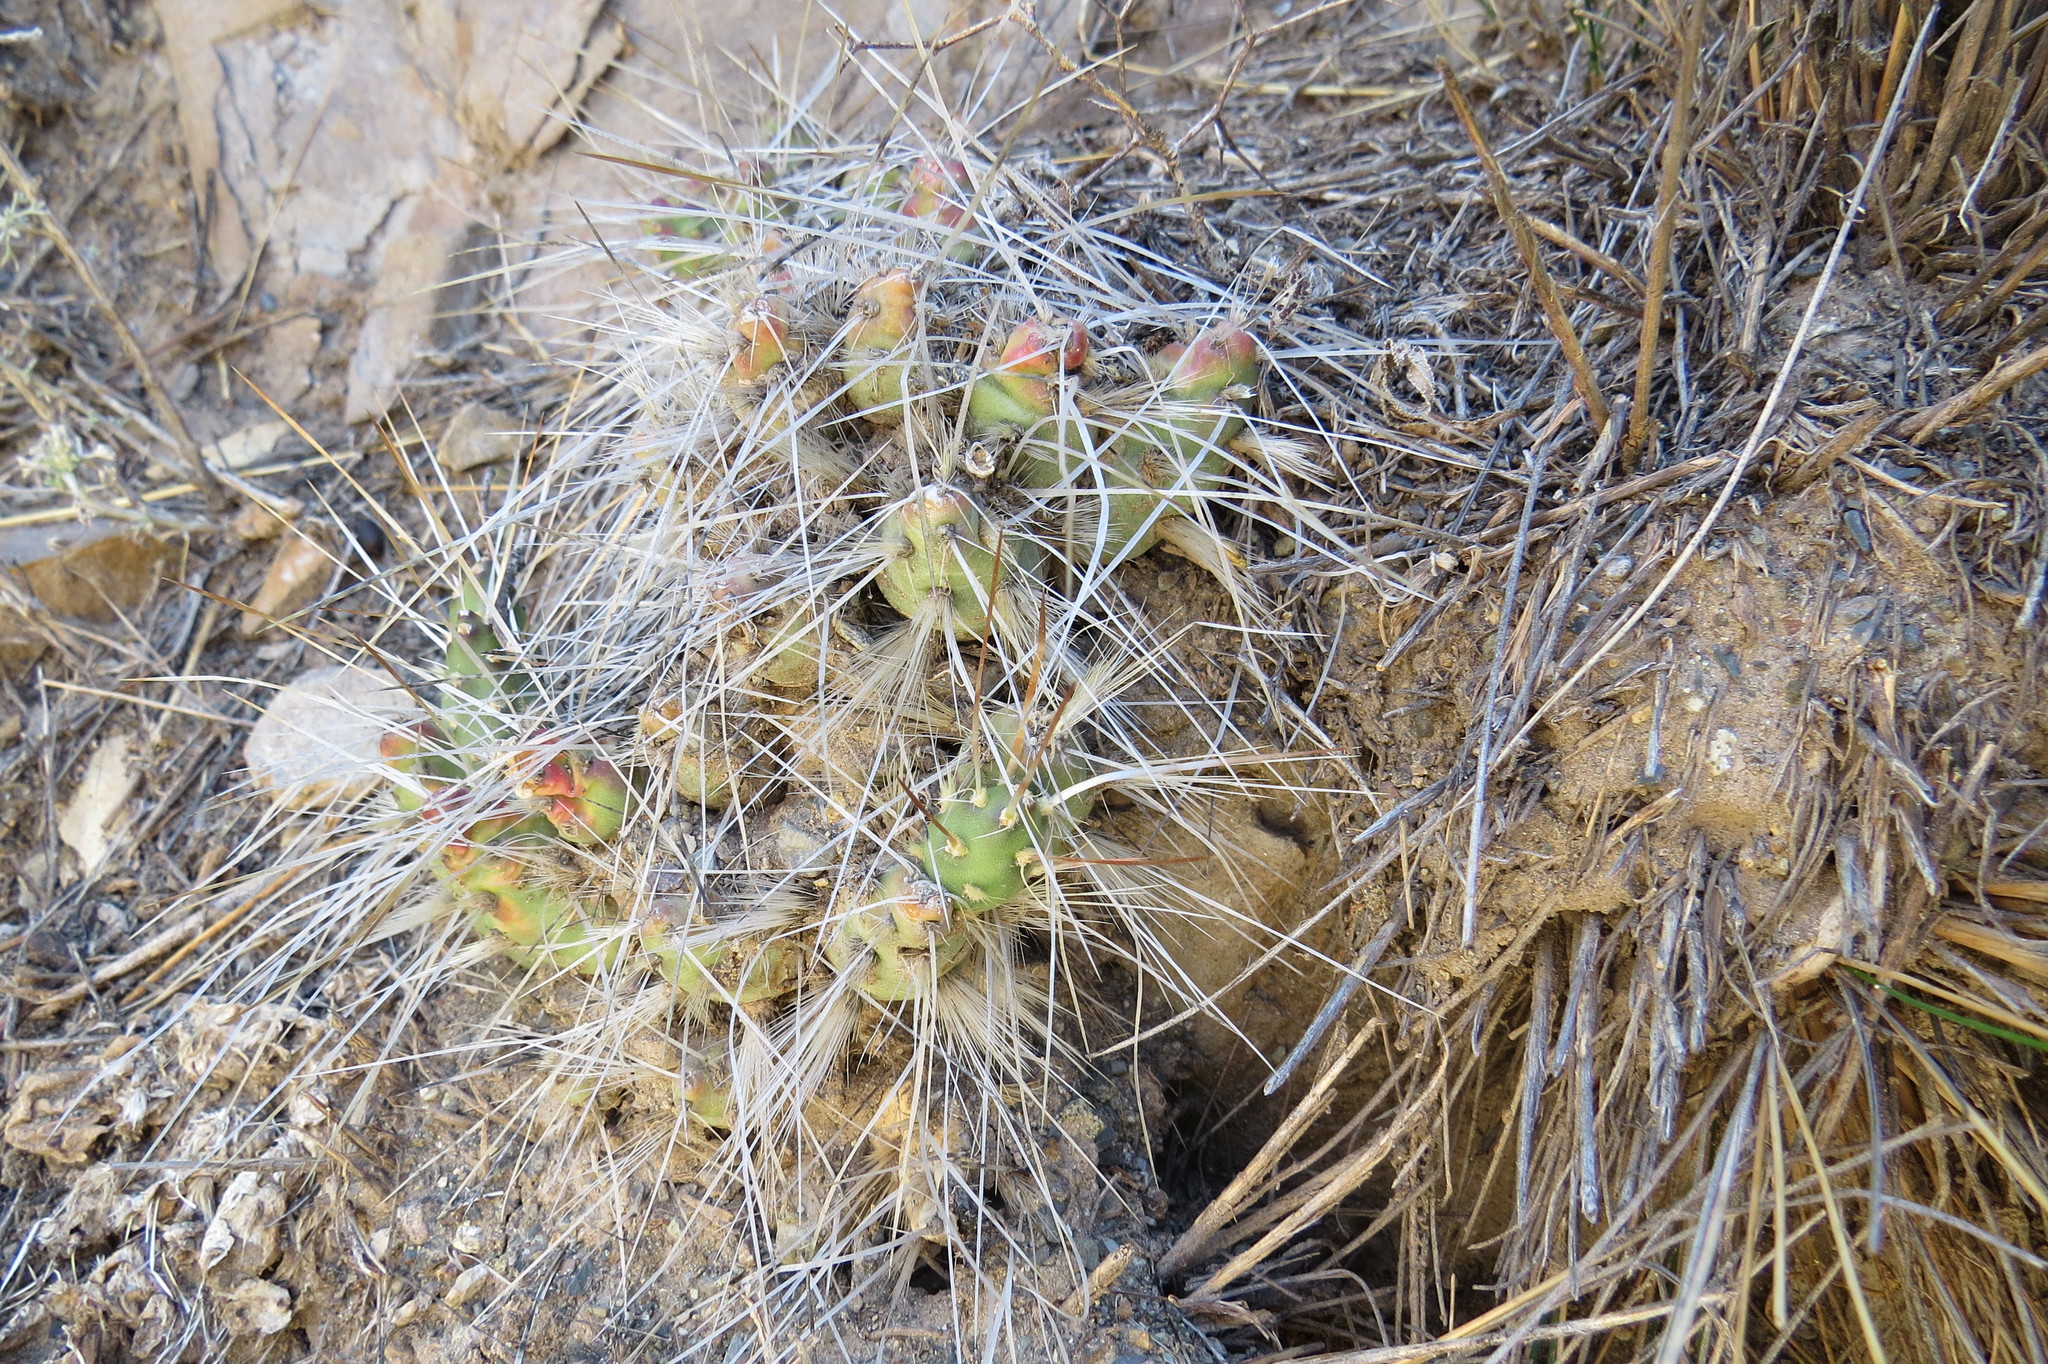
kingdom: Plantae
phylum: Tracheophyta
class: Magnoliopsida
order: Caryophyllales
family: Cactaceae
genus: Maihueniopsis
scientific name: Maihueniopsis ovata
